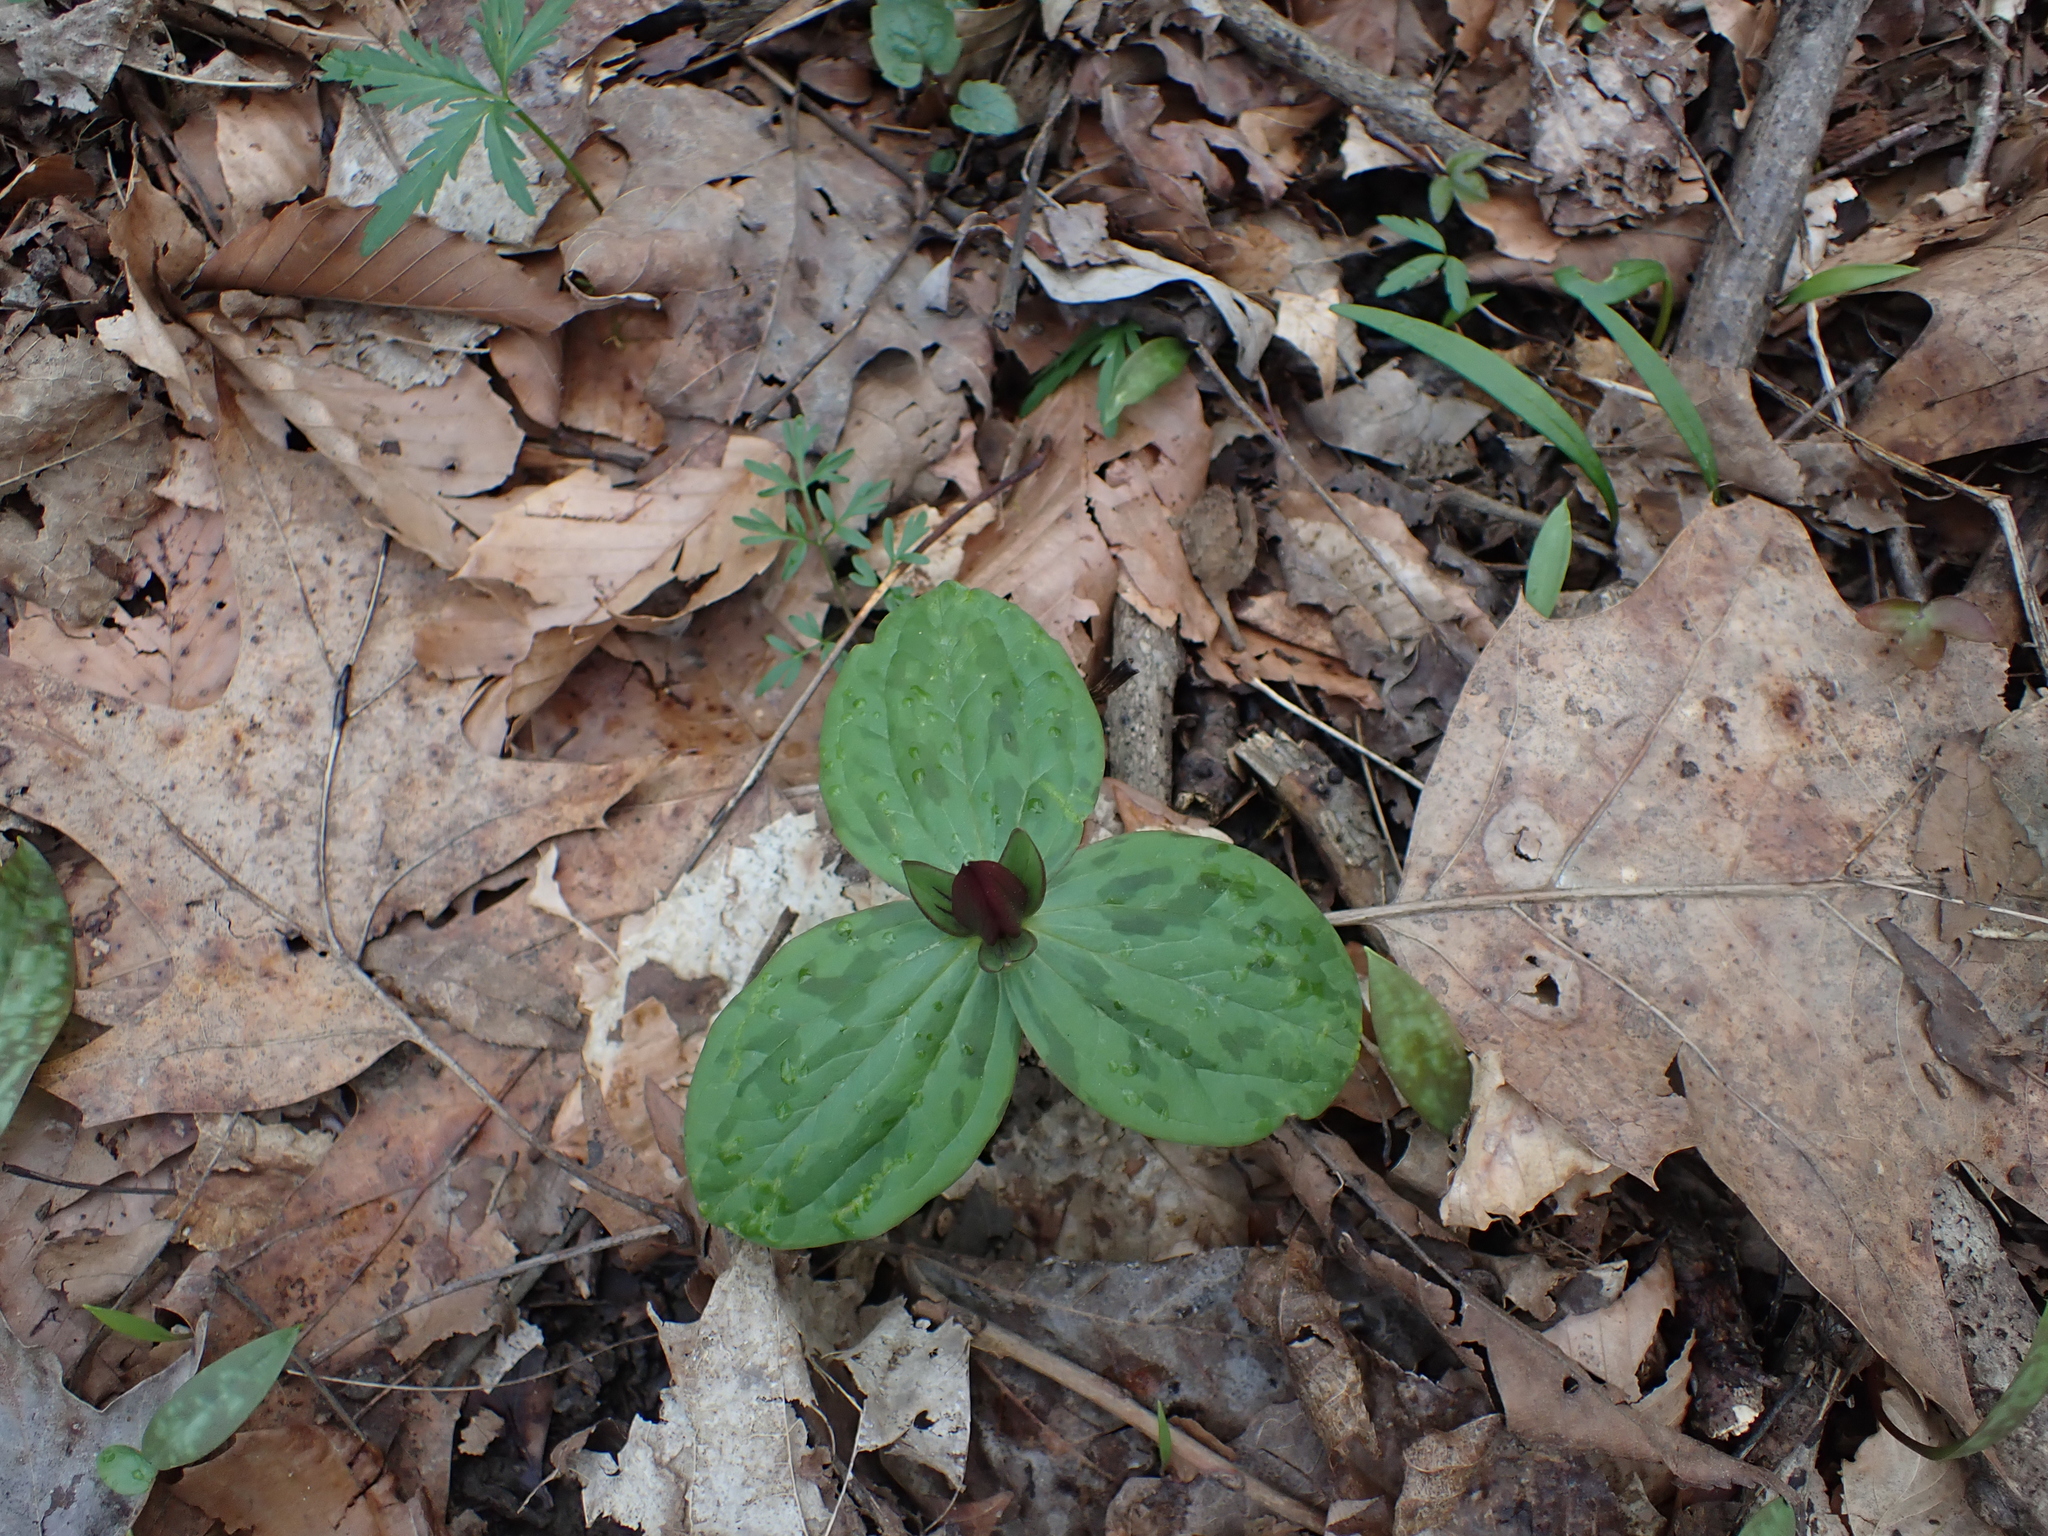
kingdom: Plantae
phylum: Tracheophyta
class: Liliopsida
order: Liliales
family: Melanthiaceae
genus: Trillium
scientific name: Trillium sessile
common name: Sessile trillium
